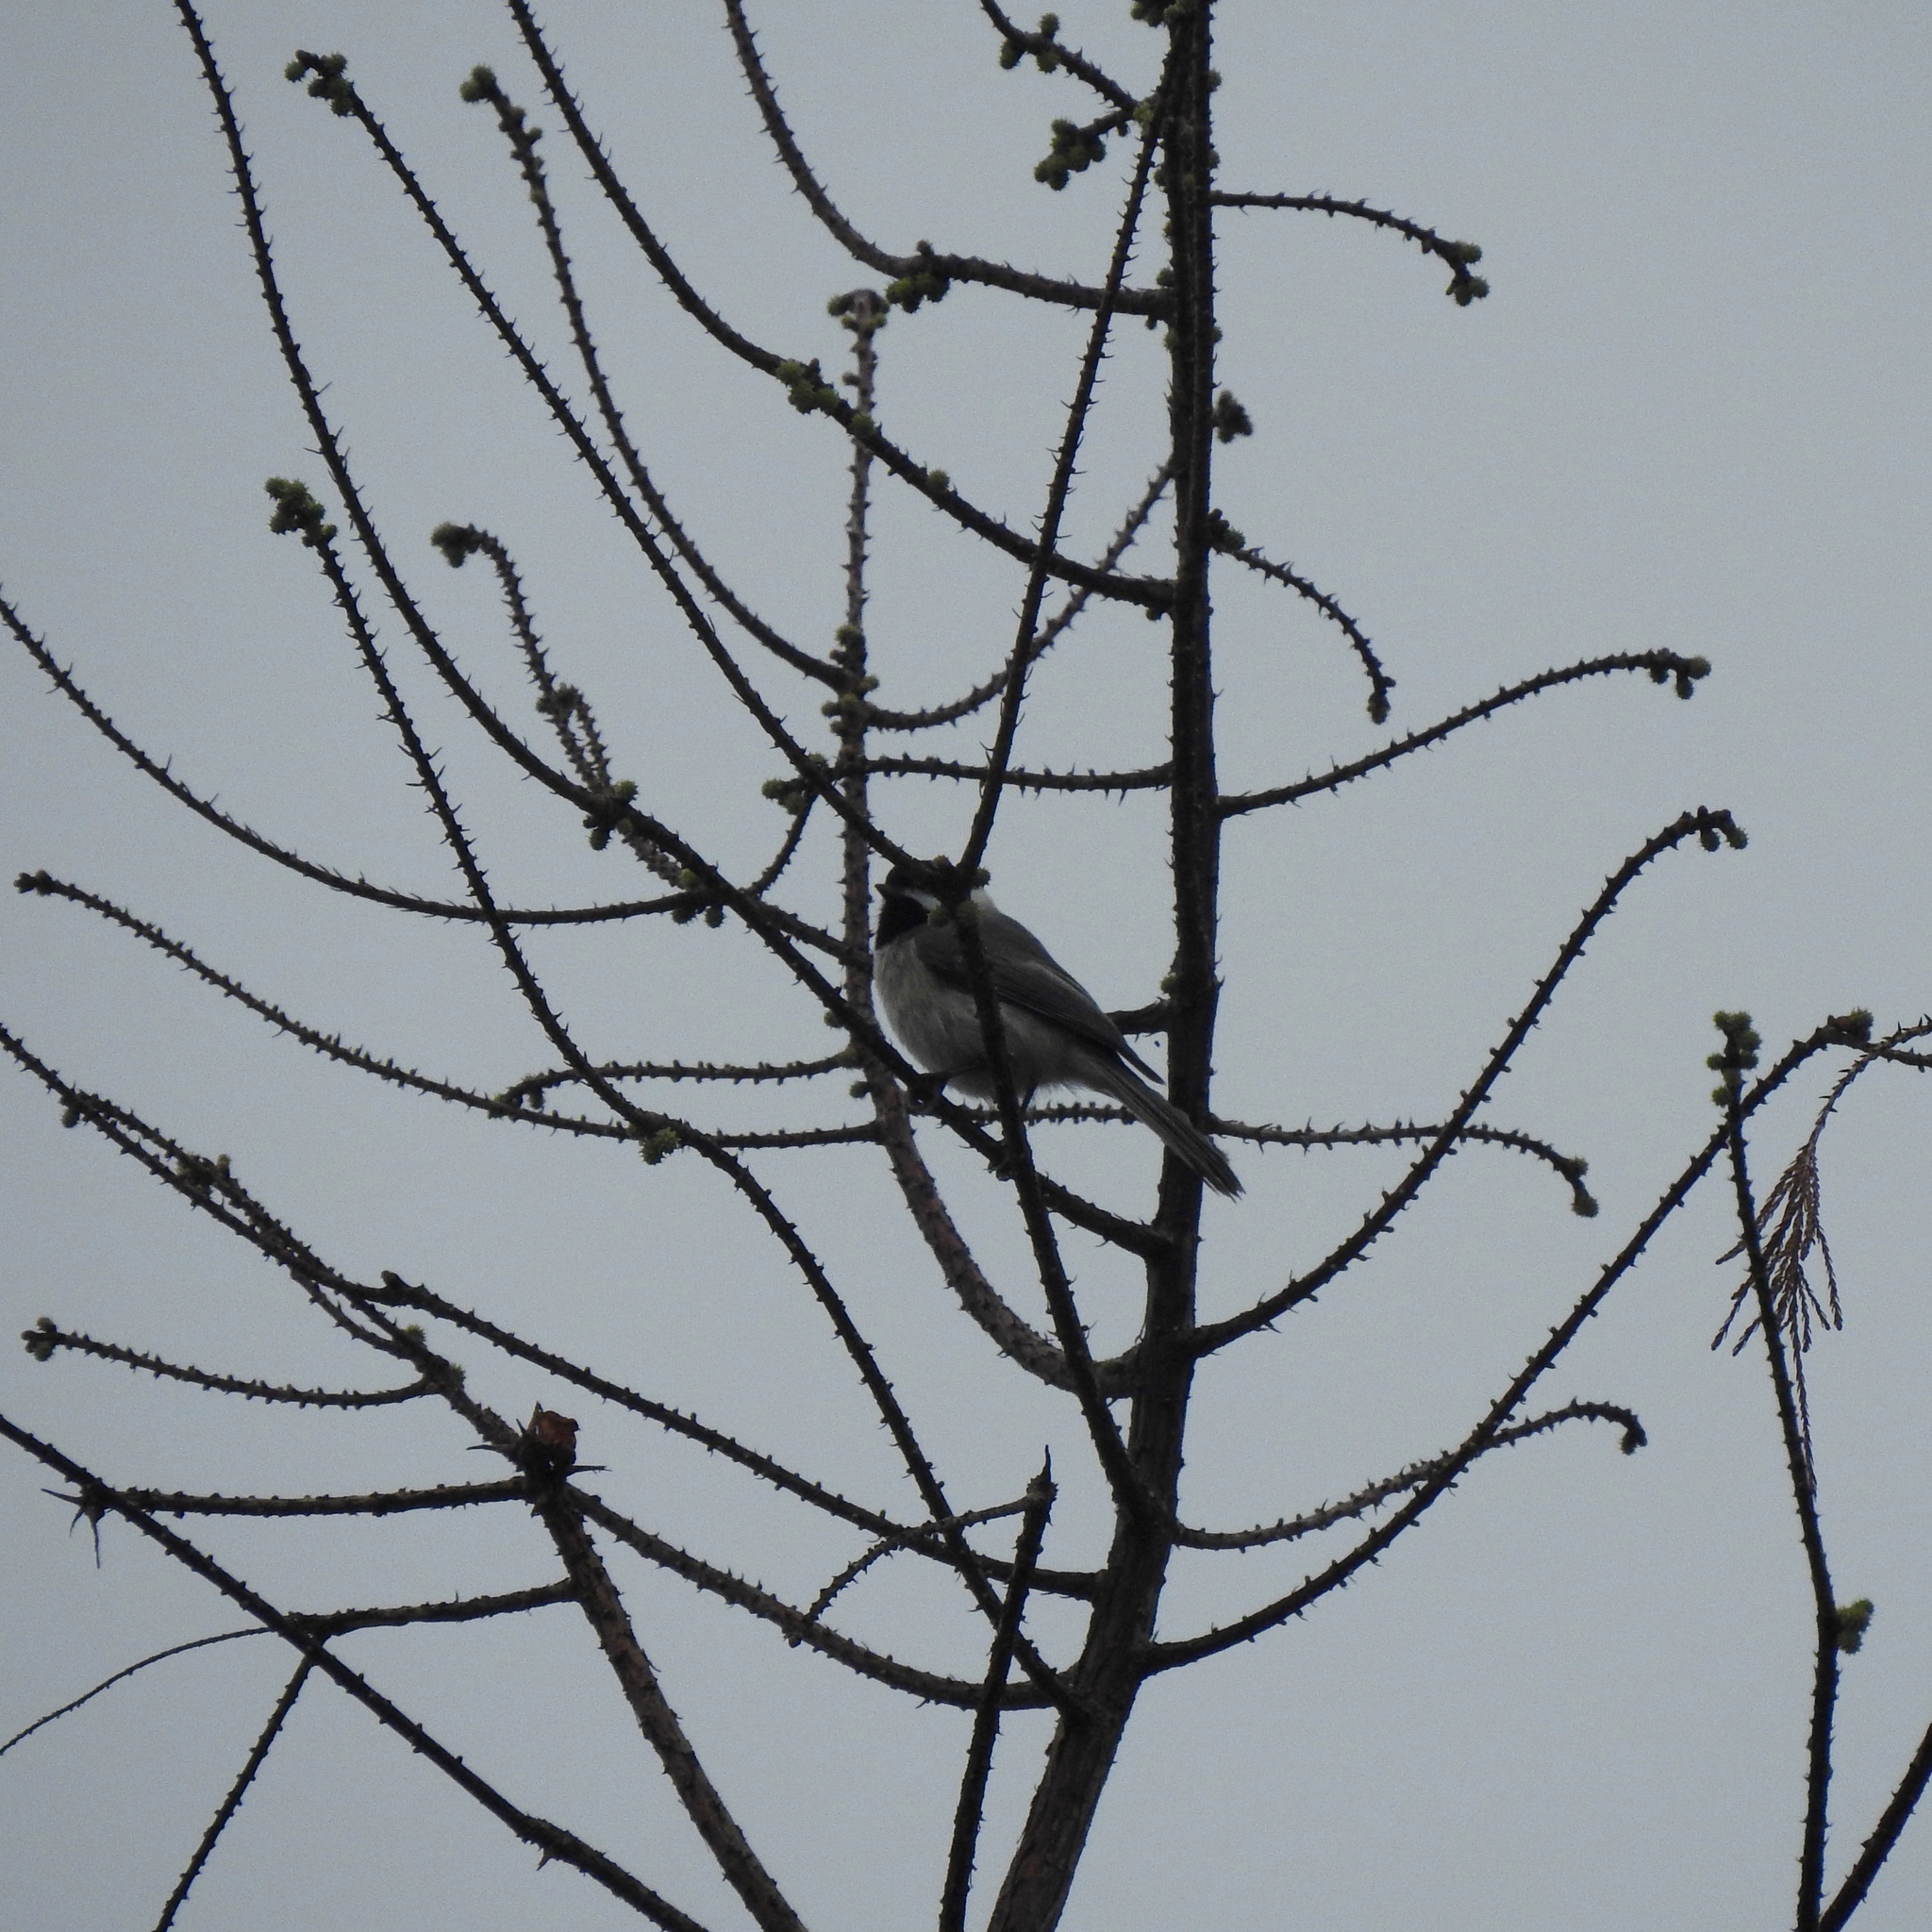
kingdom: Animalia
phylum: Chordata
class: Aves
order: Passeriformes
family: Paridae
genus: Poecile
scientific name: Poecile carolinensis
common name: Carolina chickadee
